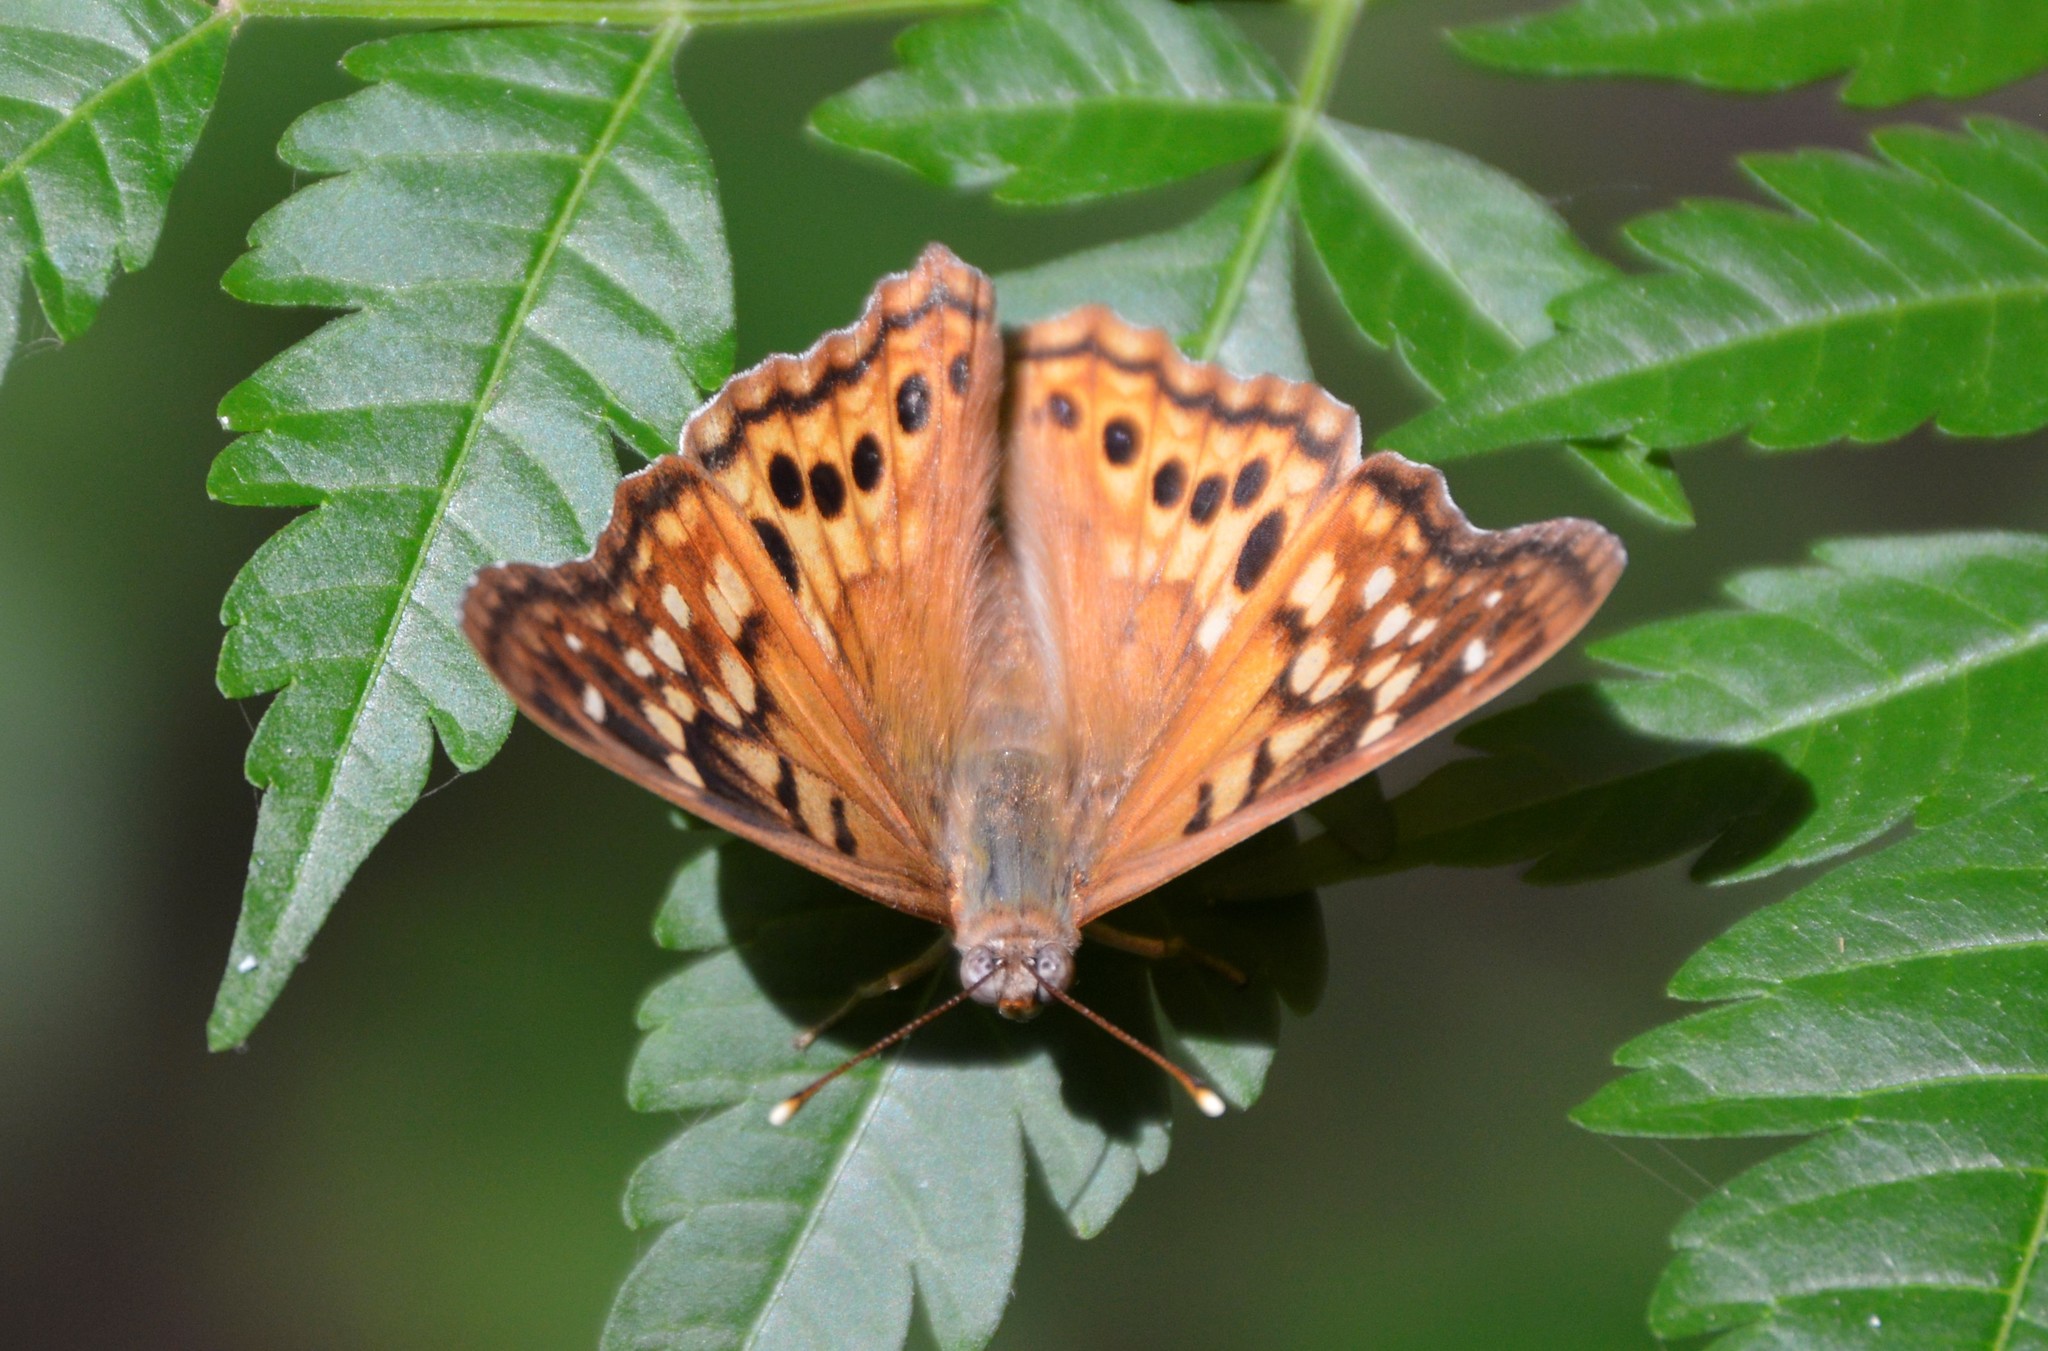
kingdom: Animalia
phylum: Arthropoda
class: Insecta
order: Lepidoptera
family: Nymphalidae
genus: Asterocampa
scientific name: Asterocampa clyton
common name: Tawny emperor
